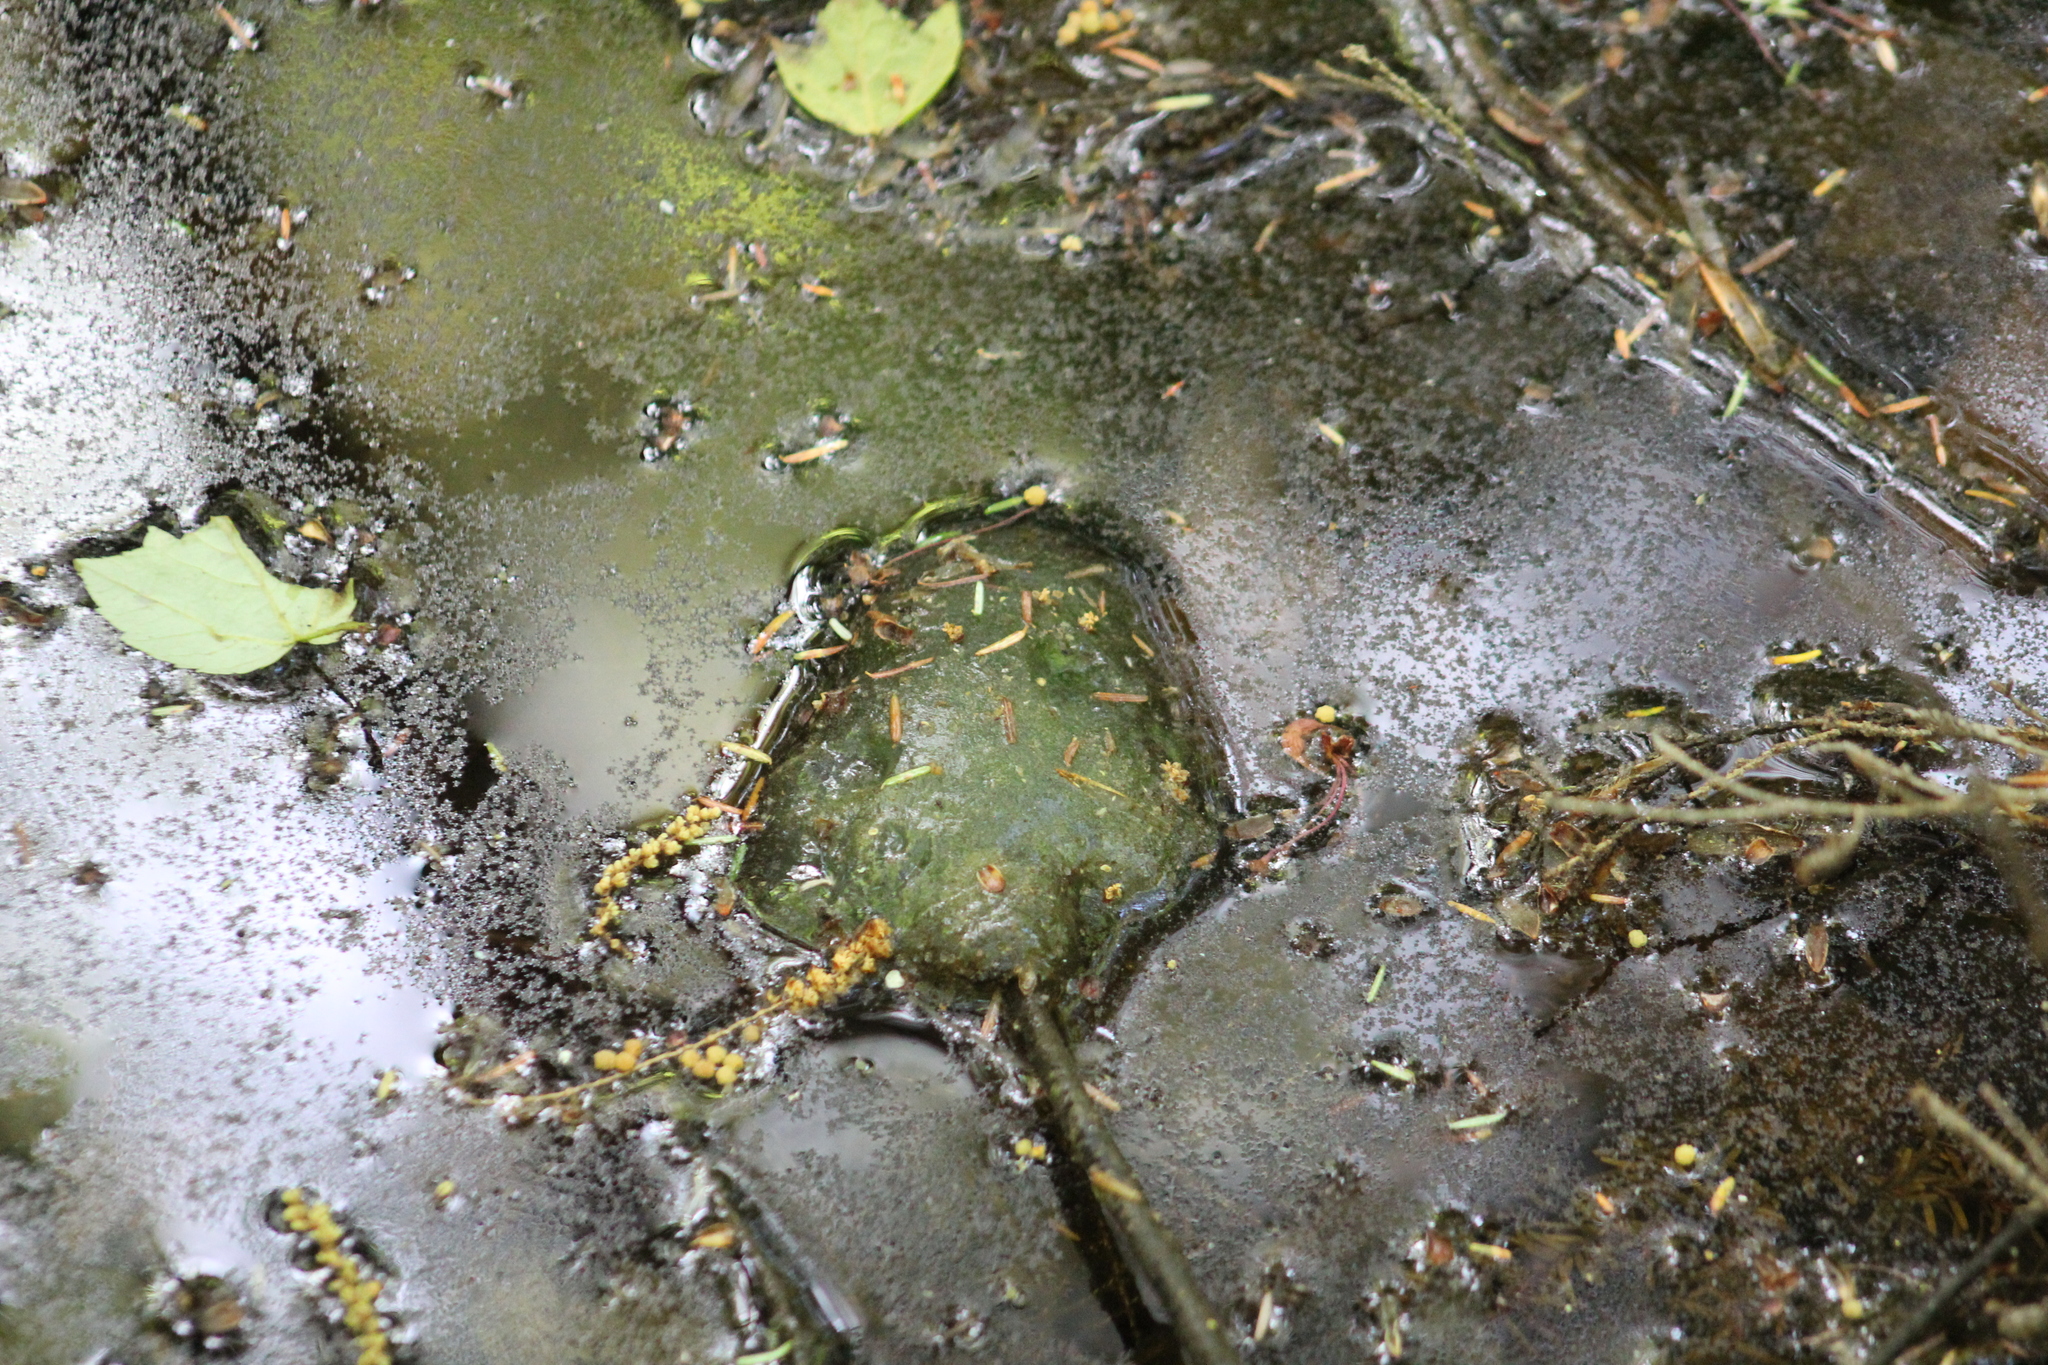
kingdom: Animalia
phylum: Chordata
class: Amphibia
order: Caudata
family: Ambystomatidae
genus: Ambystoma
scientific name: Ambystoma maculatum
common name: Spotted salamander
